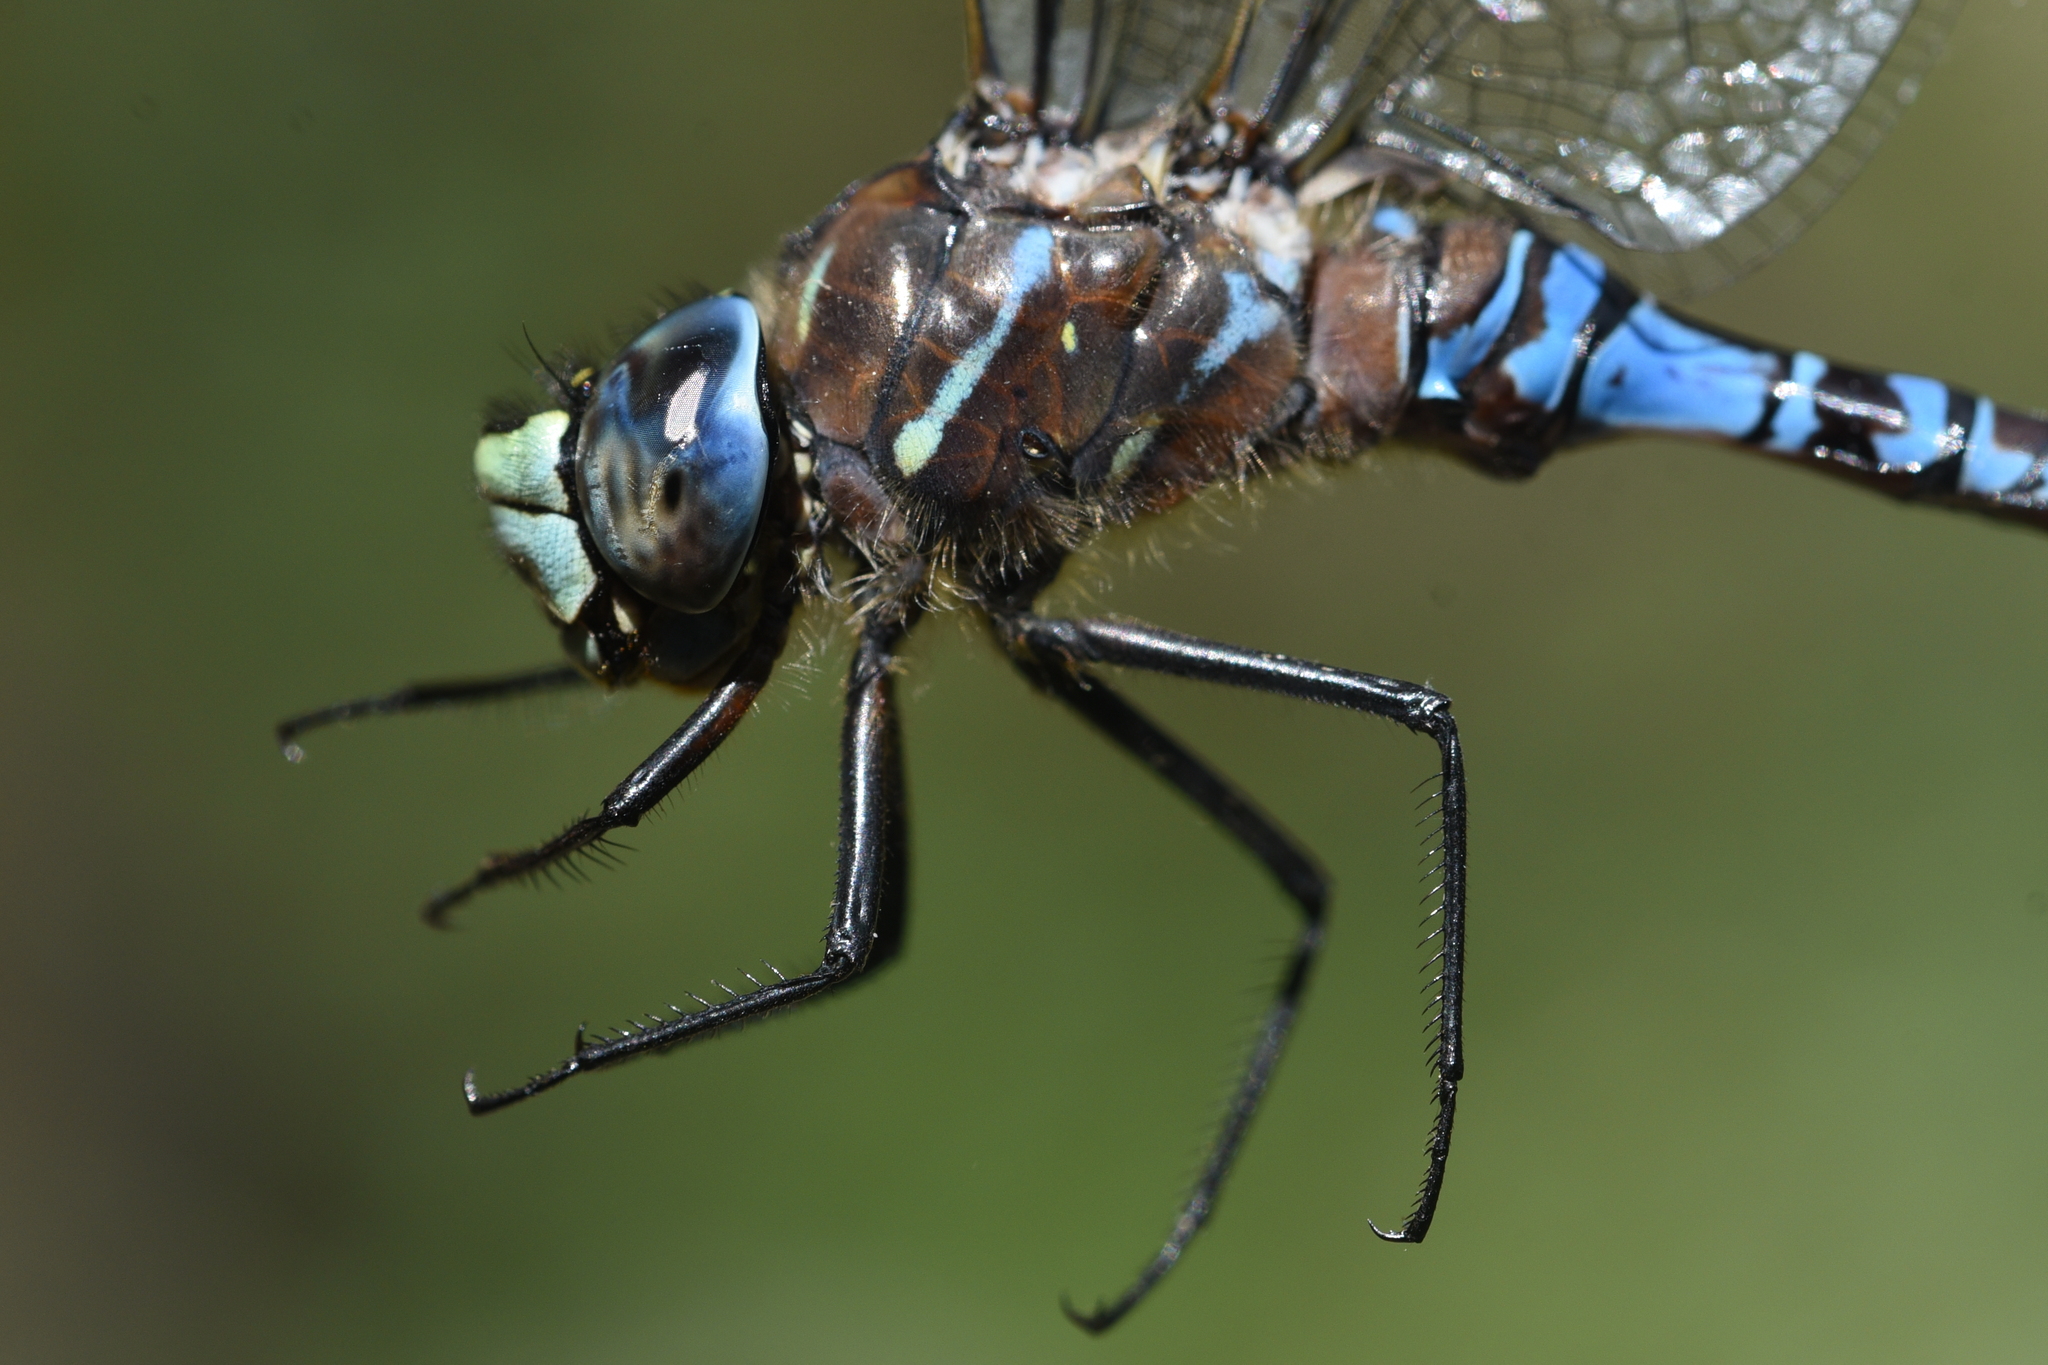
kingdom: Animalia
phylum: Arthropoda
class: Insecta
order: Odonata
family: Aeshnidae
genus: Aeshna
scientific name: Aeshna interrupta
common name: Variable darner
